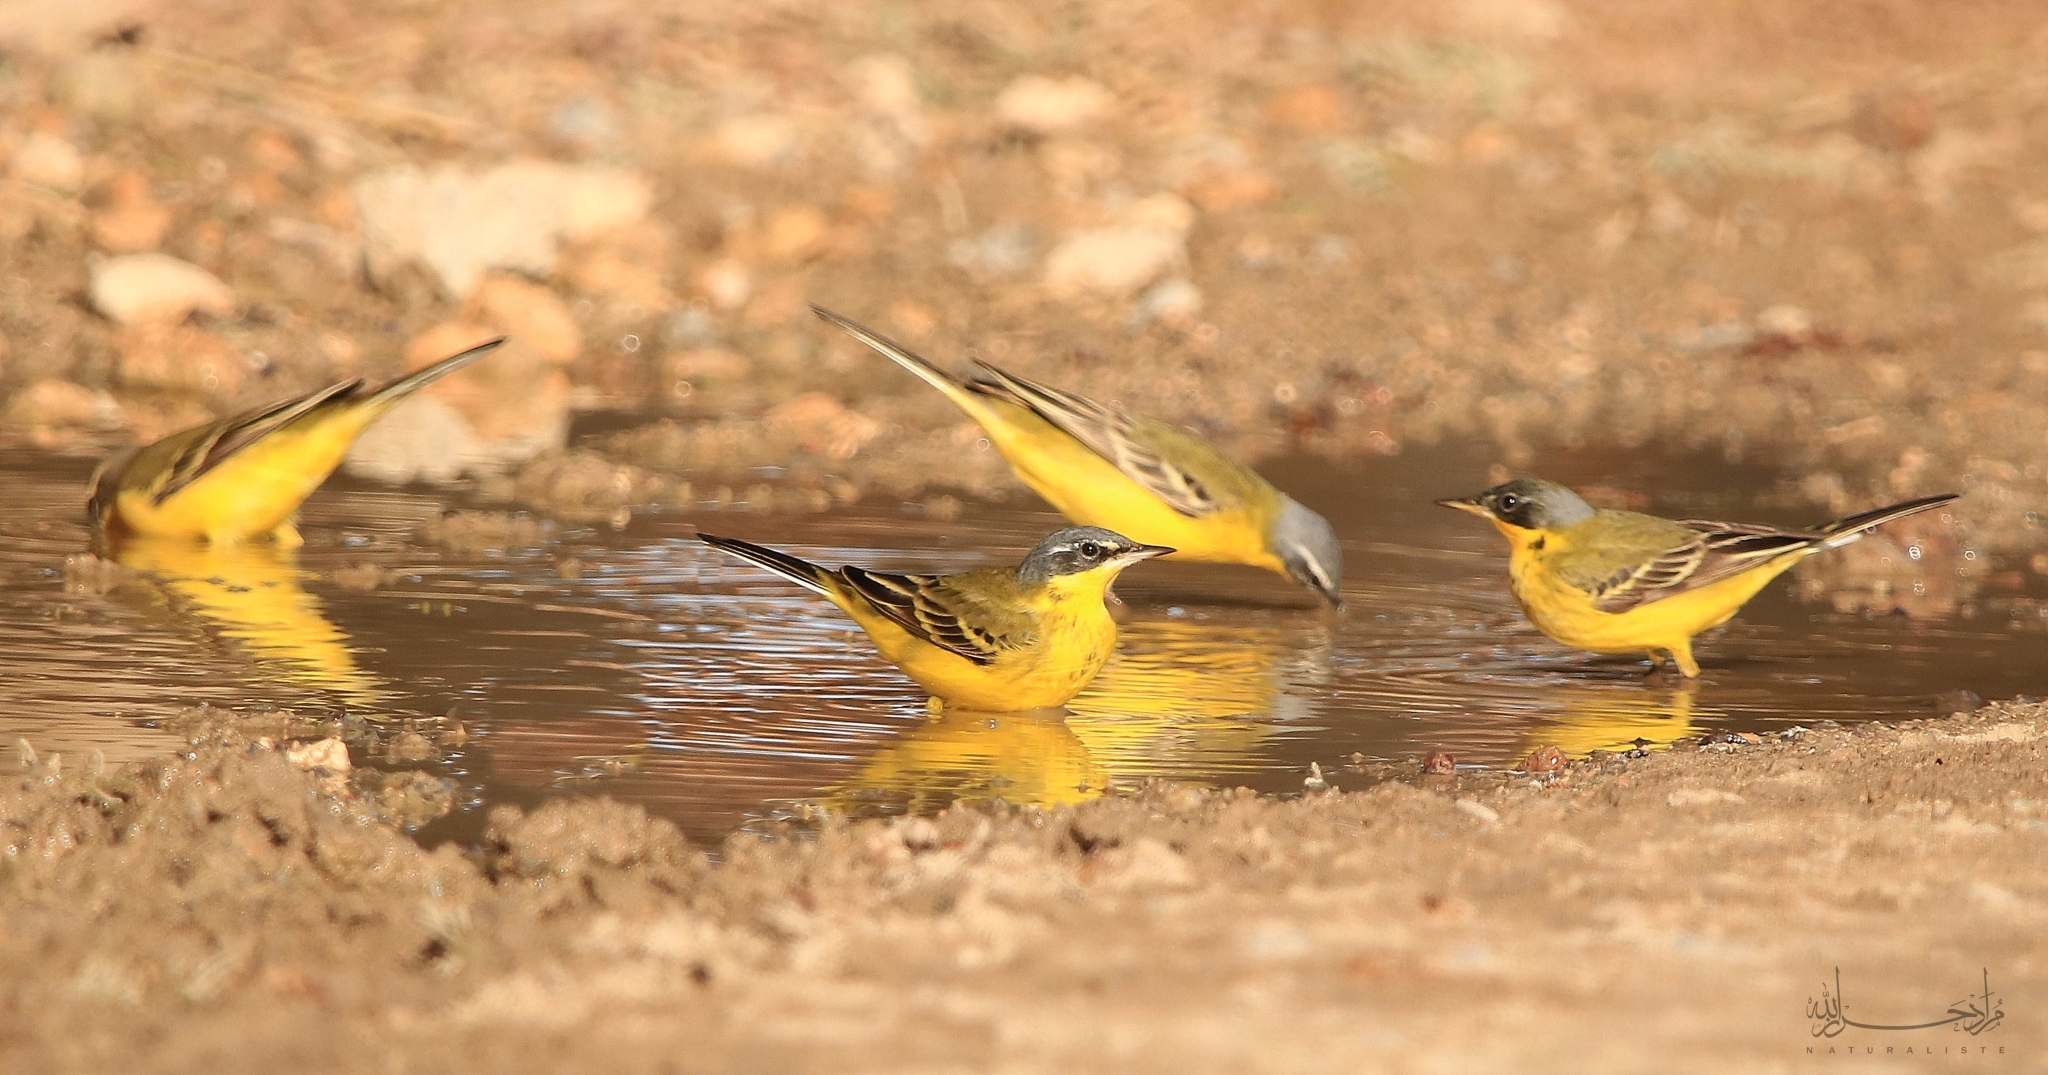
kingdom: Animalia
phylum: Chordata
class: Aves
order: Passeriformes
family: Motacillidae
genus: Motacilla
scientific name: Motacilla flava
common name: Western yellow wagtail
